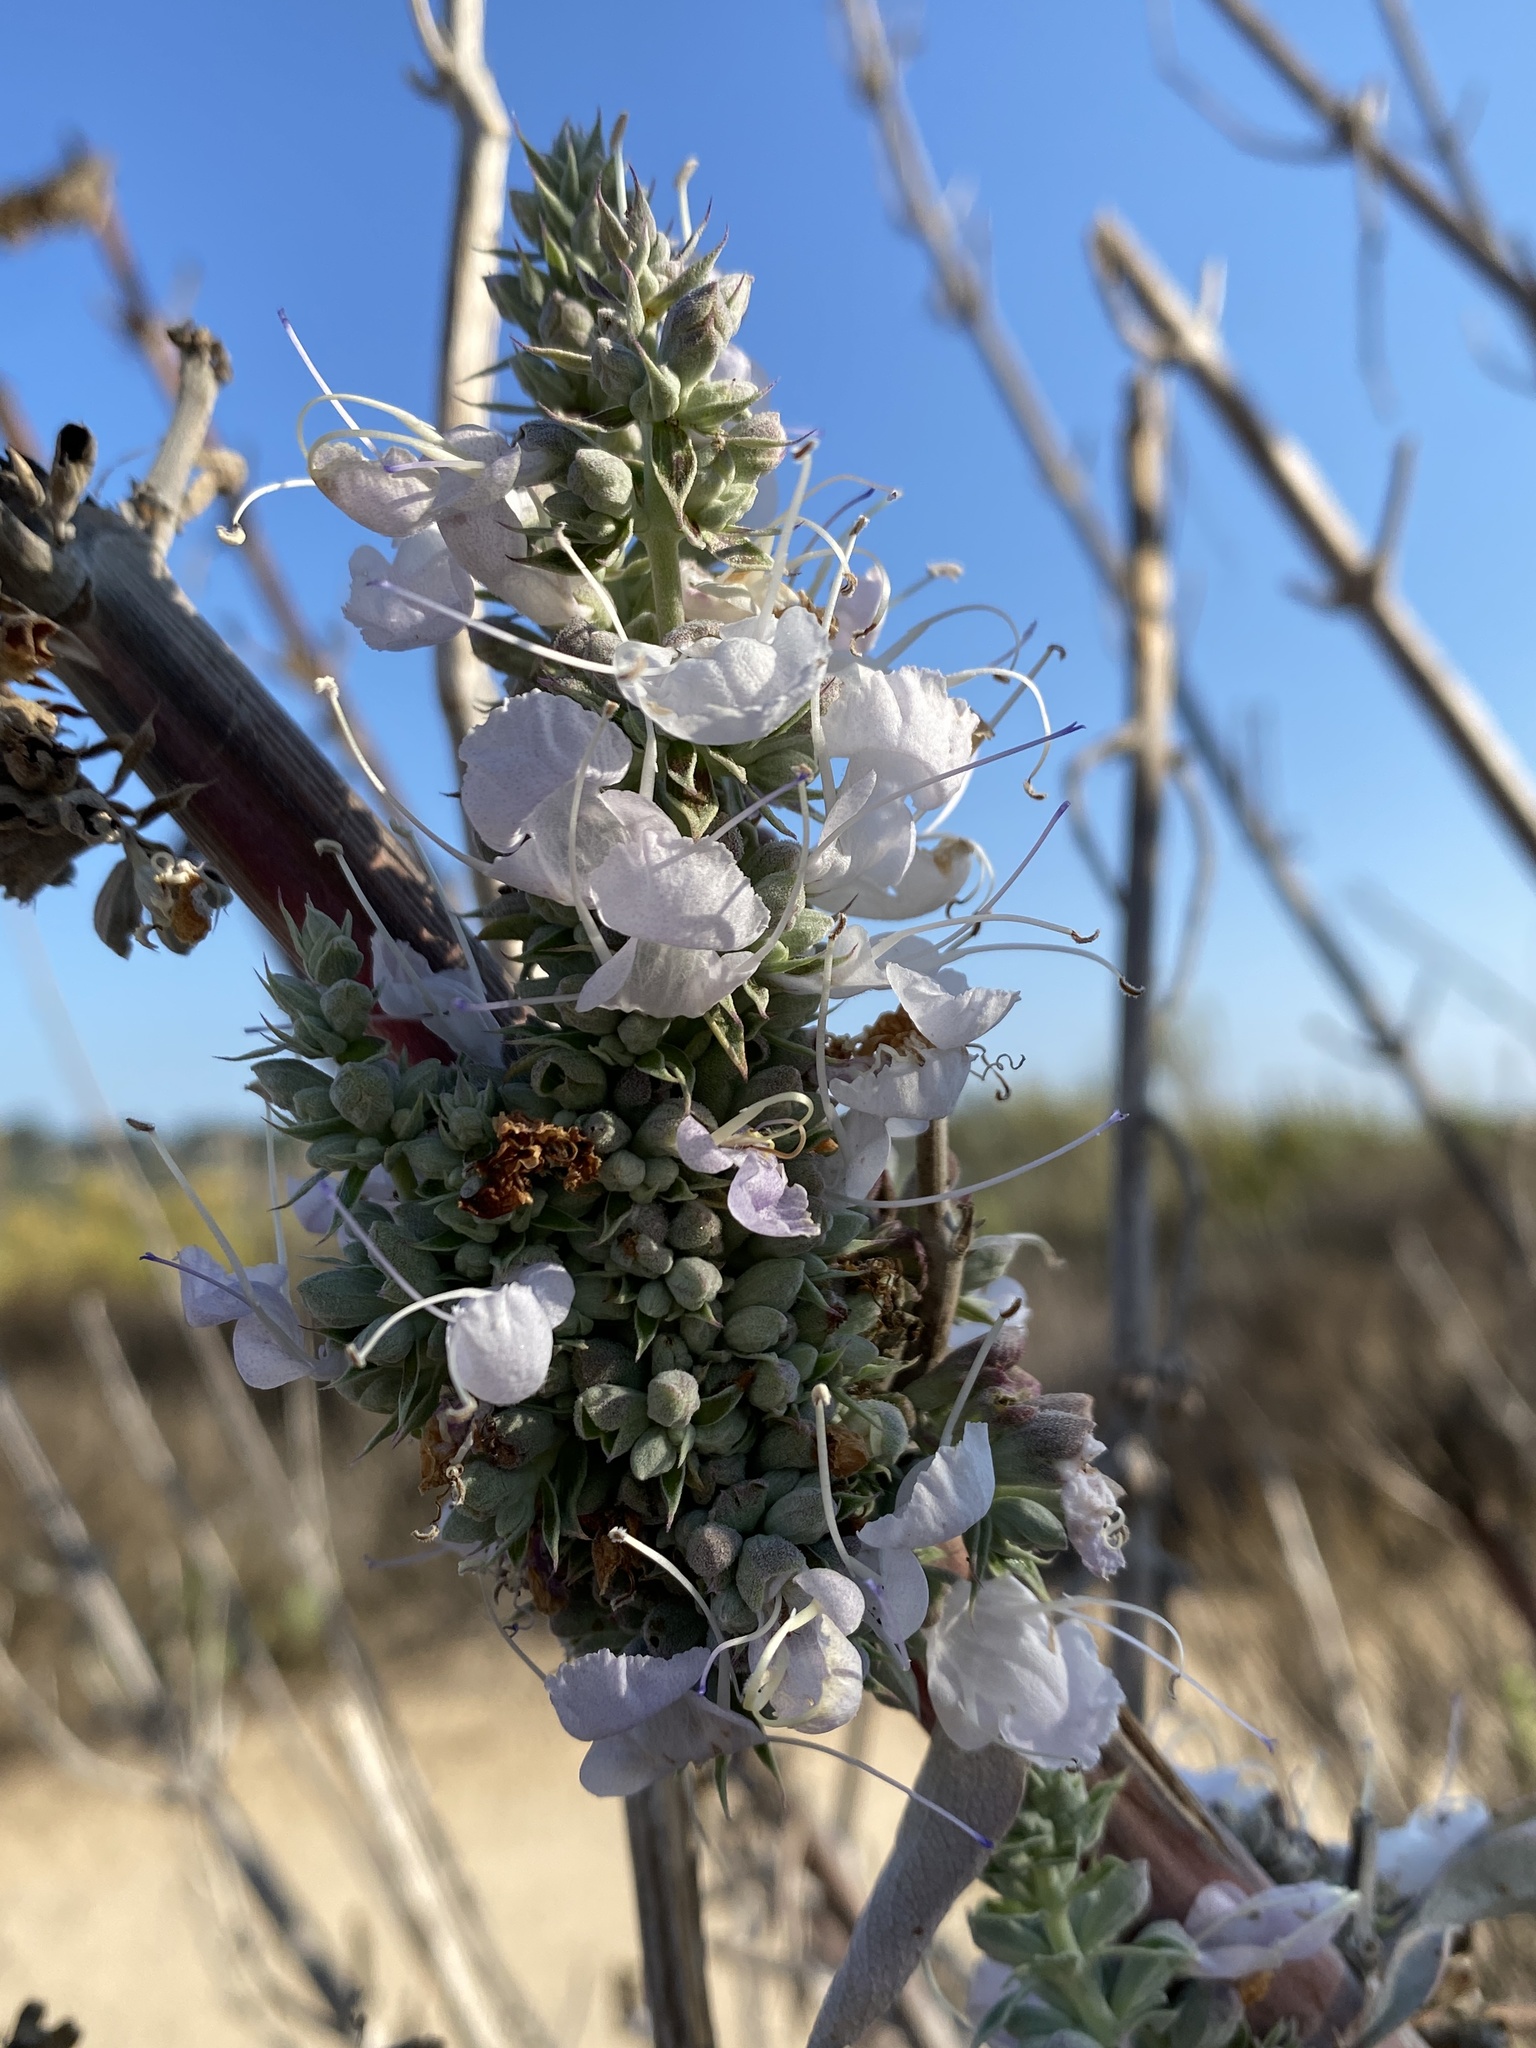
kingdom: Plantae
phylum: Tracheophyta
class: Magnoliopsida
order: Lamiales
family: Lamiaceae
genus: Salvia
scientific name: Salvia apiana
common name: White sage
